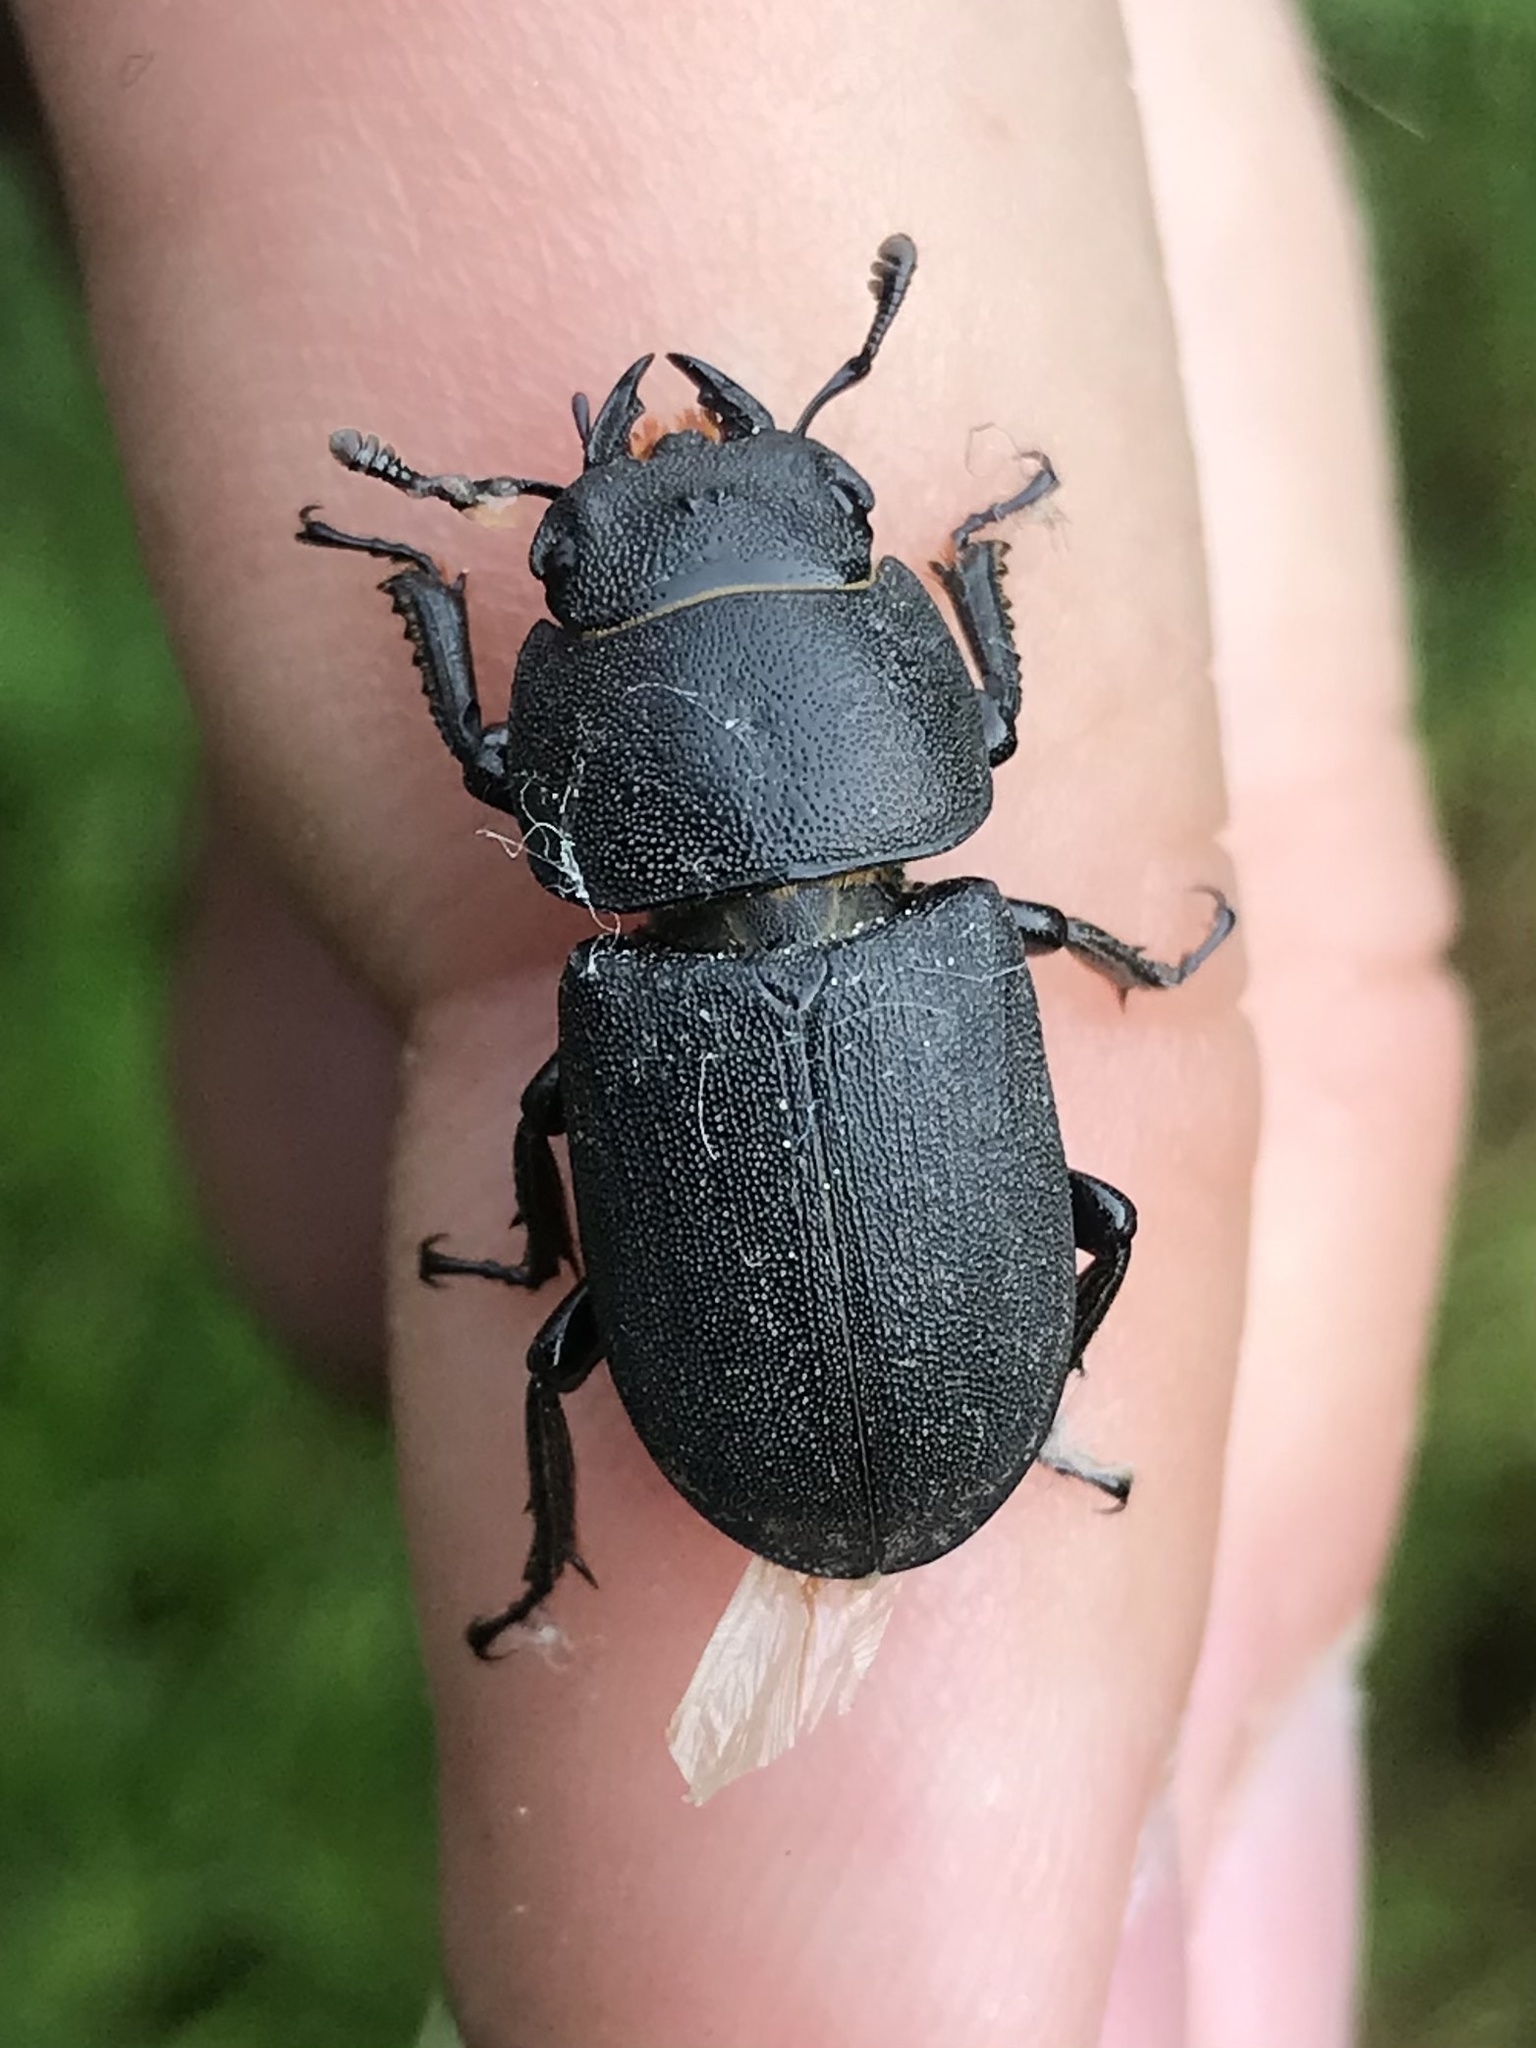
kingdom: Animalia
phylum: Arthropoda
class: Insecta
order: Coleoptera
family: Lucanidae
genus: Dorcus
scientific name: Dorcus parallelipipedus
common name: Lesser stag beetle
